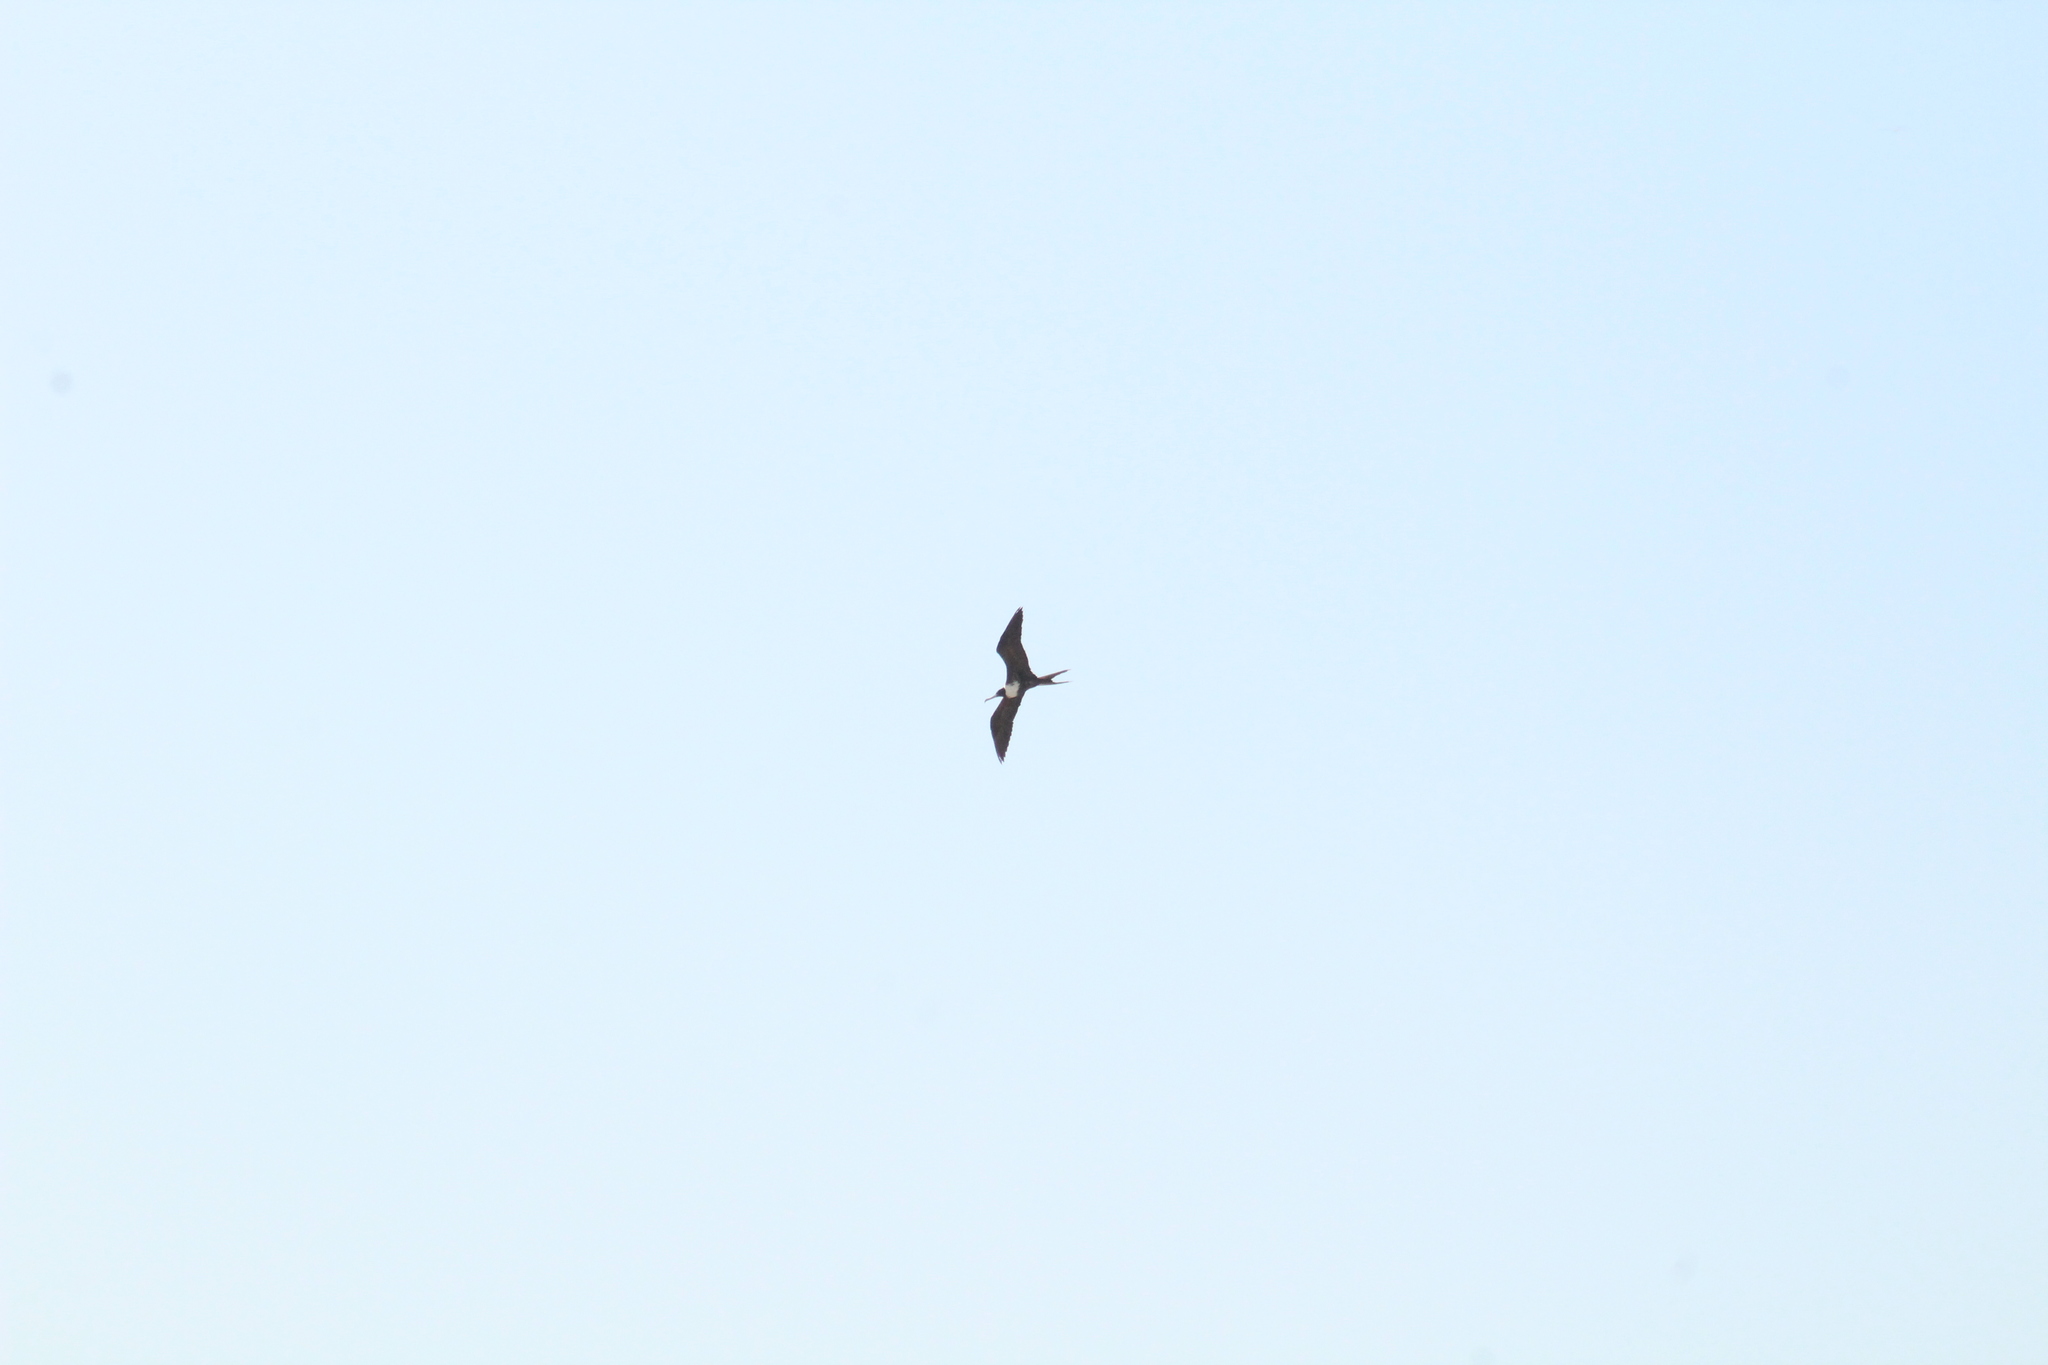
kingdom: Animalia
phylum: Chordata
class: Aves
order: Suliformes
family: Fregatidae
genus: Fregata
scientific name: Fregata magnificens
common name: Magnificent frigatebird
